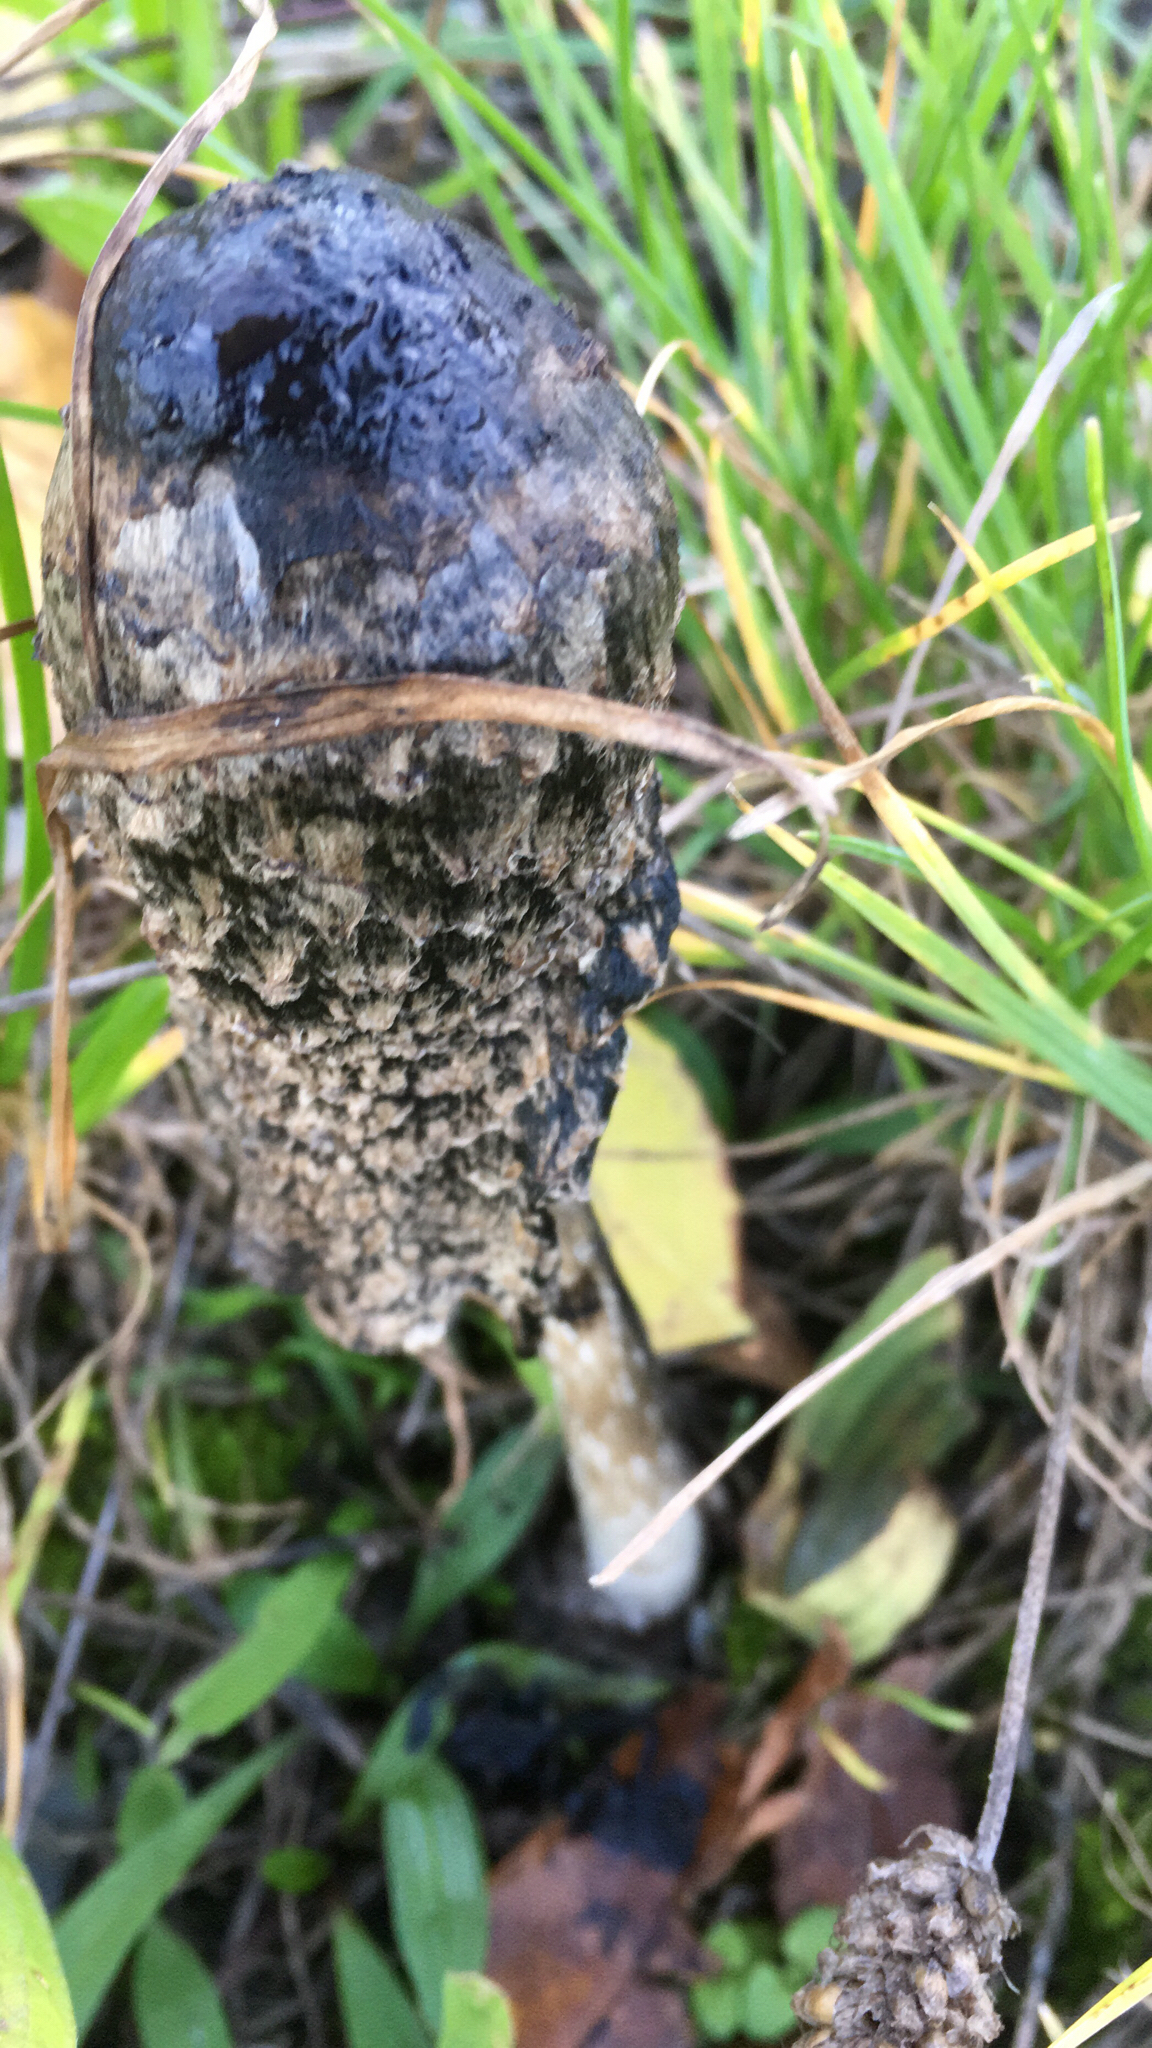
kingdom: Fungi
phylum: Basidiomycota
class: Agaricomycetes
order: Agaricales
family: Agaricaceae
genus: Coprinus
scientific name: Coprinus comatus
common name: Lawyer's wig
